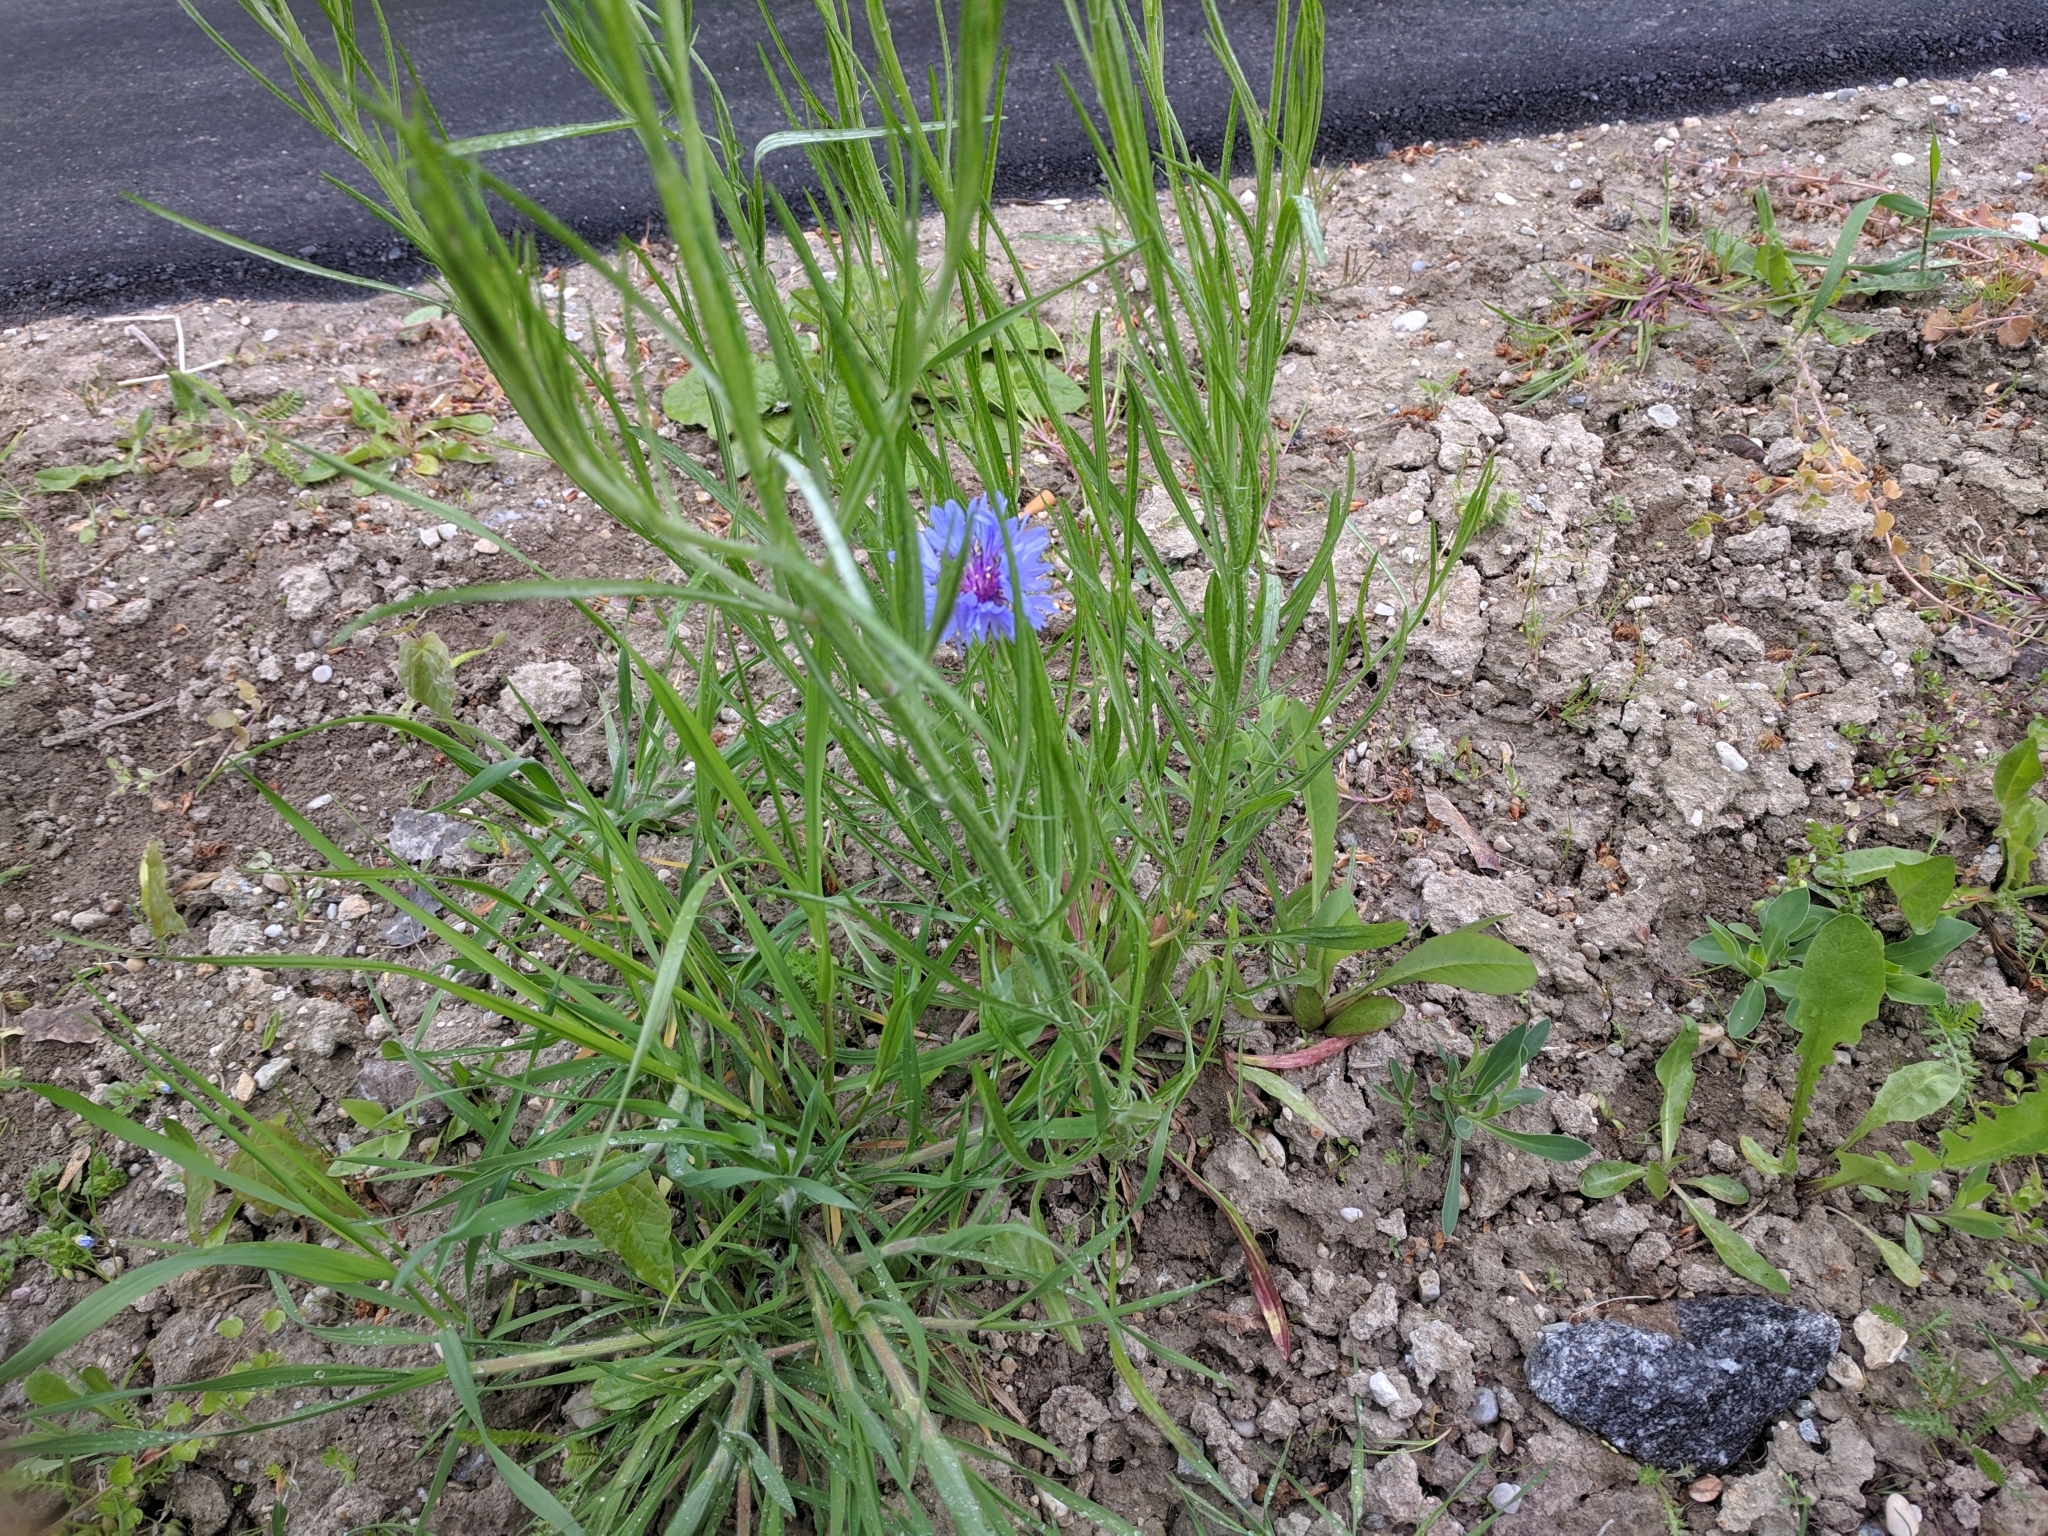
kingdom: Plantae
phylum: Tracheophyta
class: Magnoliopsida
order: Asterales
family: Asteraceae
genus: Centaurea
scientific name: Centaurea cyanus
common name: Cornflower
